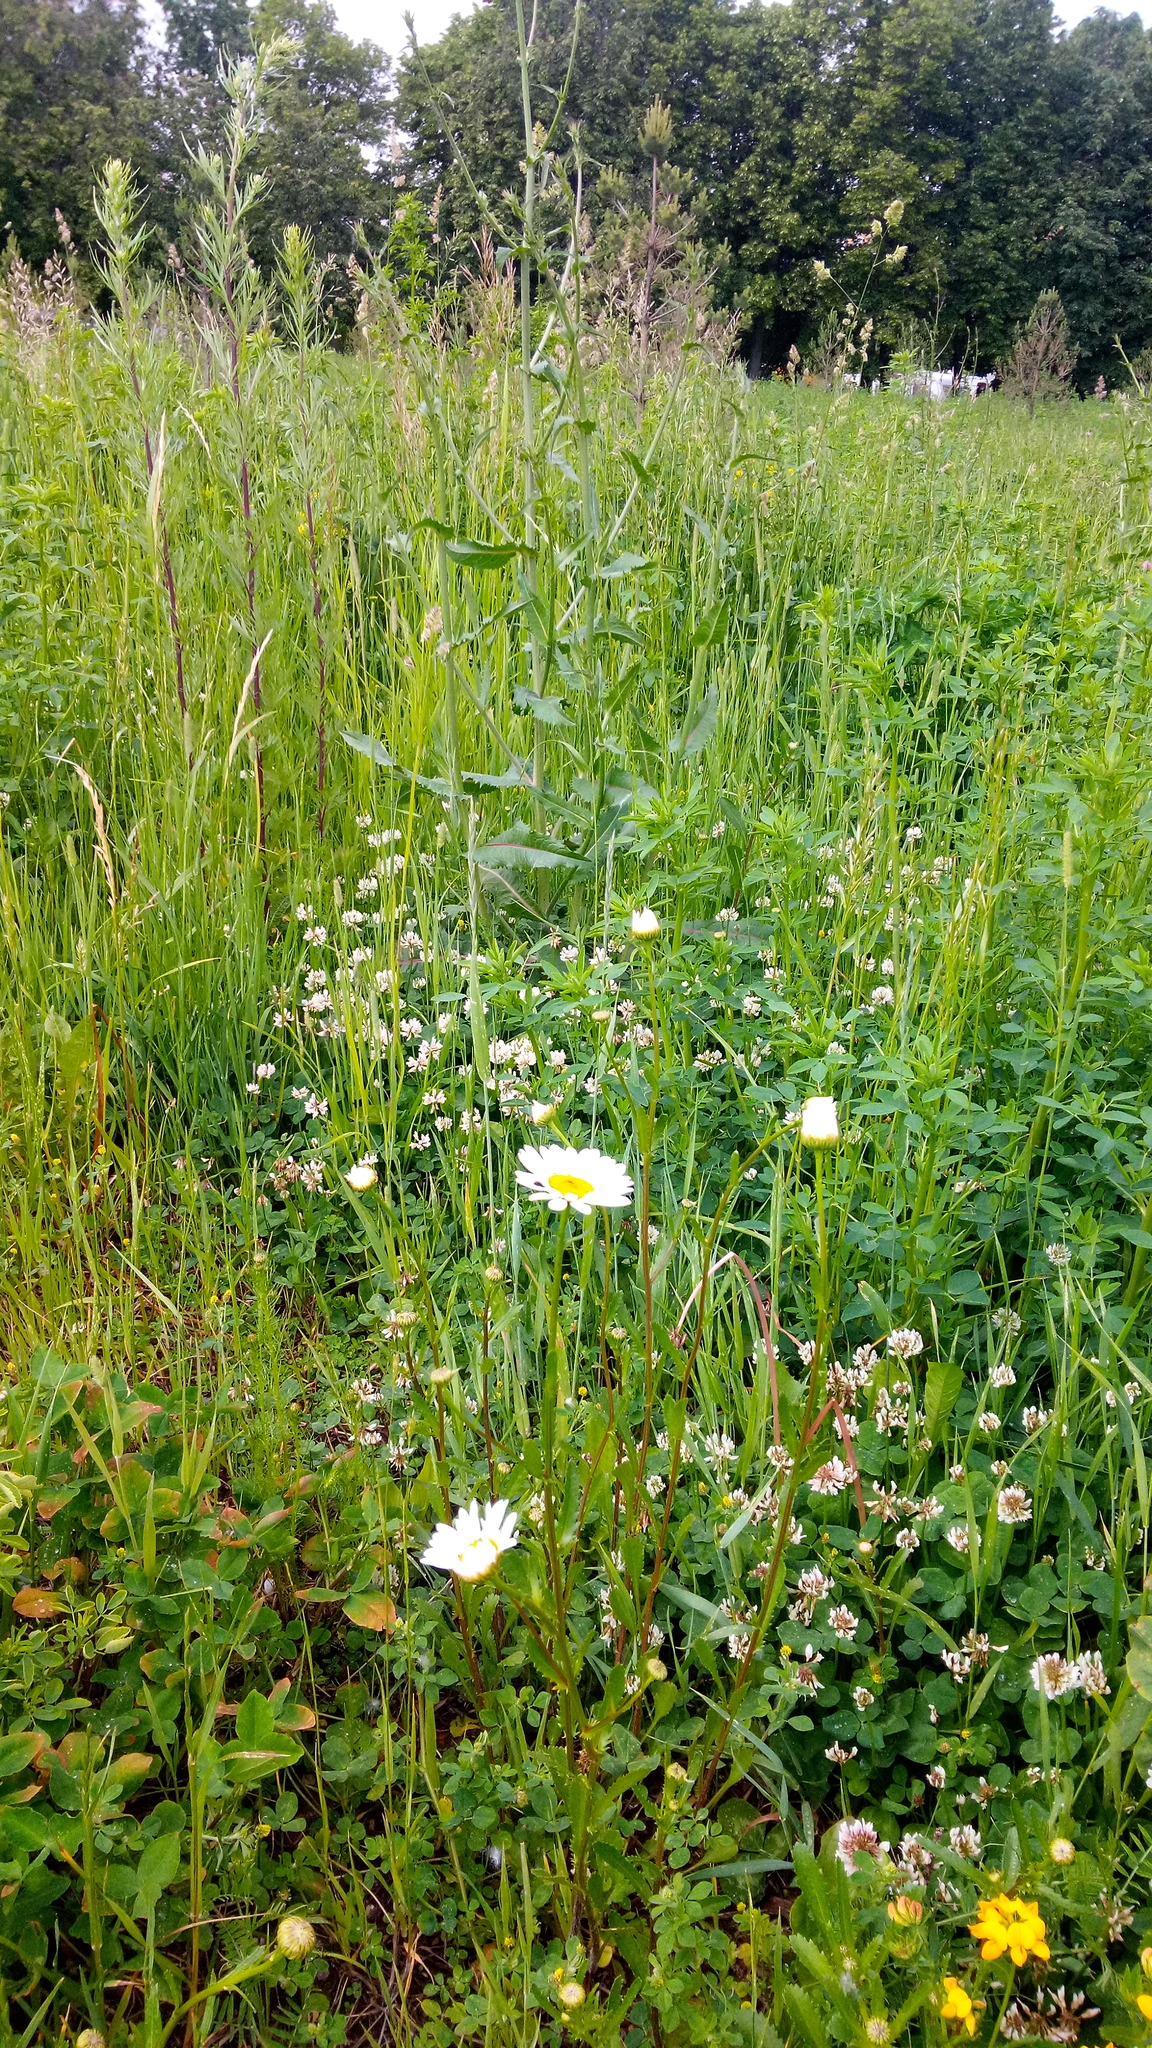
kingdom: Plantae
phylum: Tracheophyta
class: Magnoliopsida
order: Asterales
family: Asteraceae
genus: Leucanthemum
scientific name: Leucanthemum vulgare
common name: Oxeye daisy
